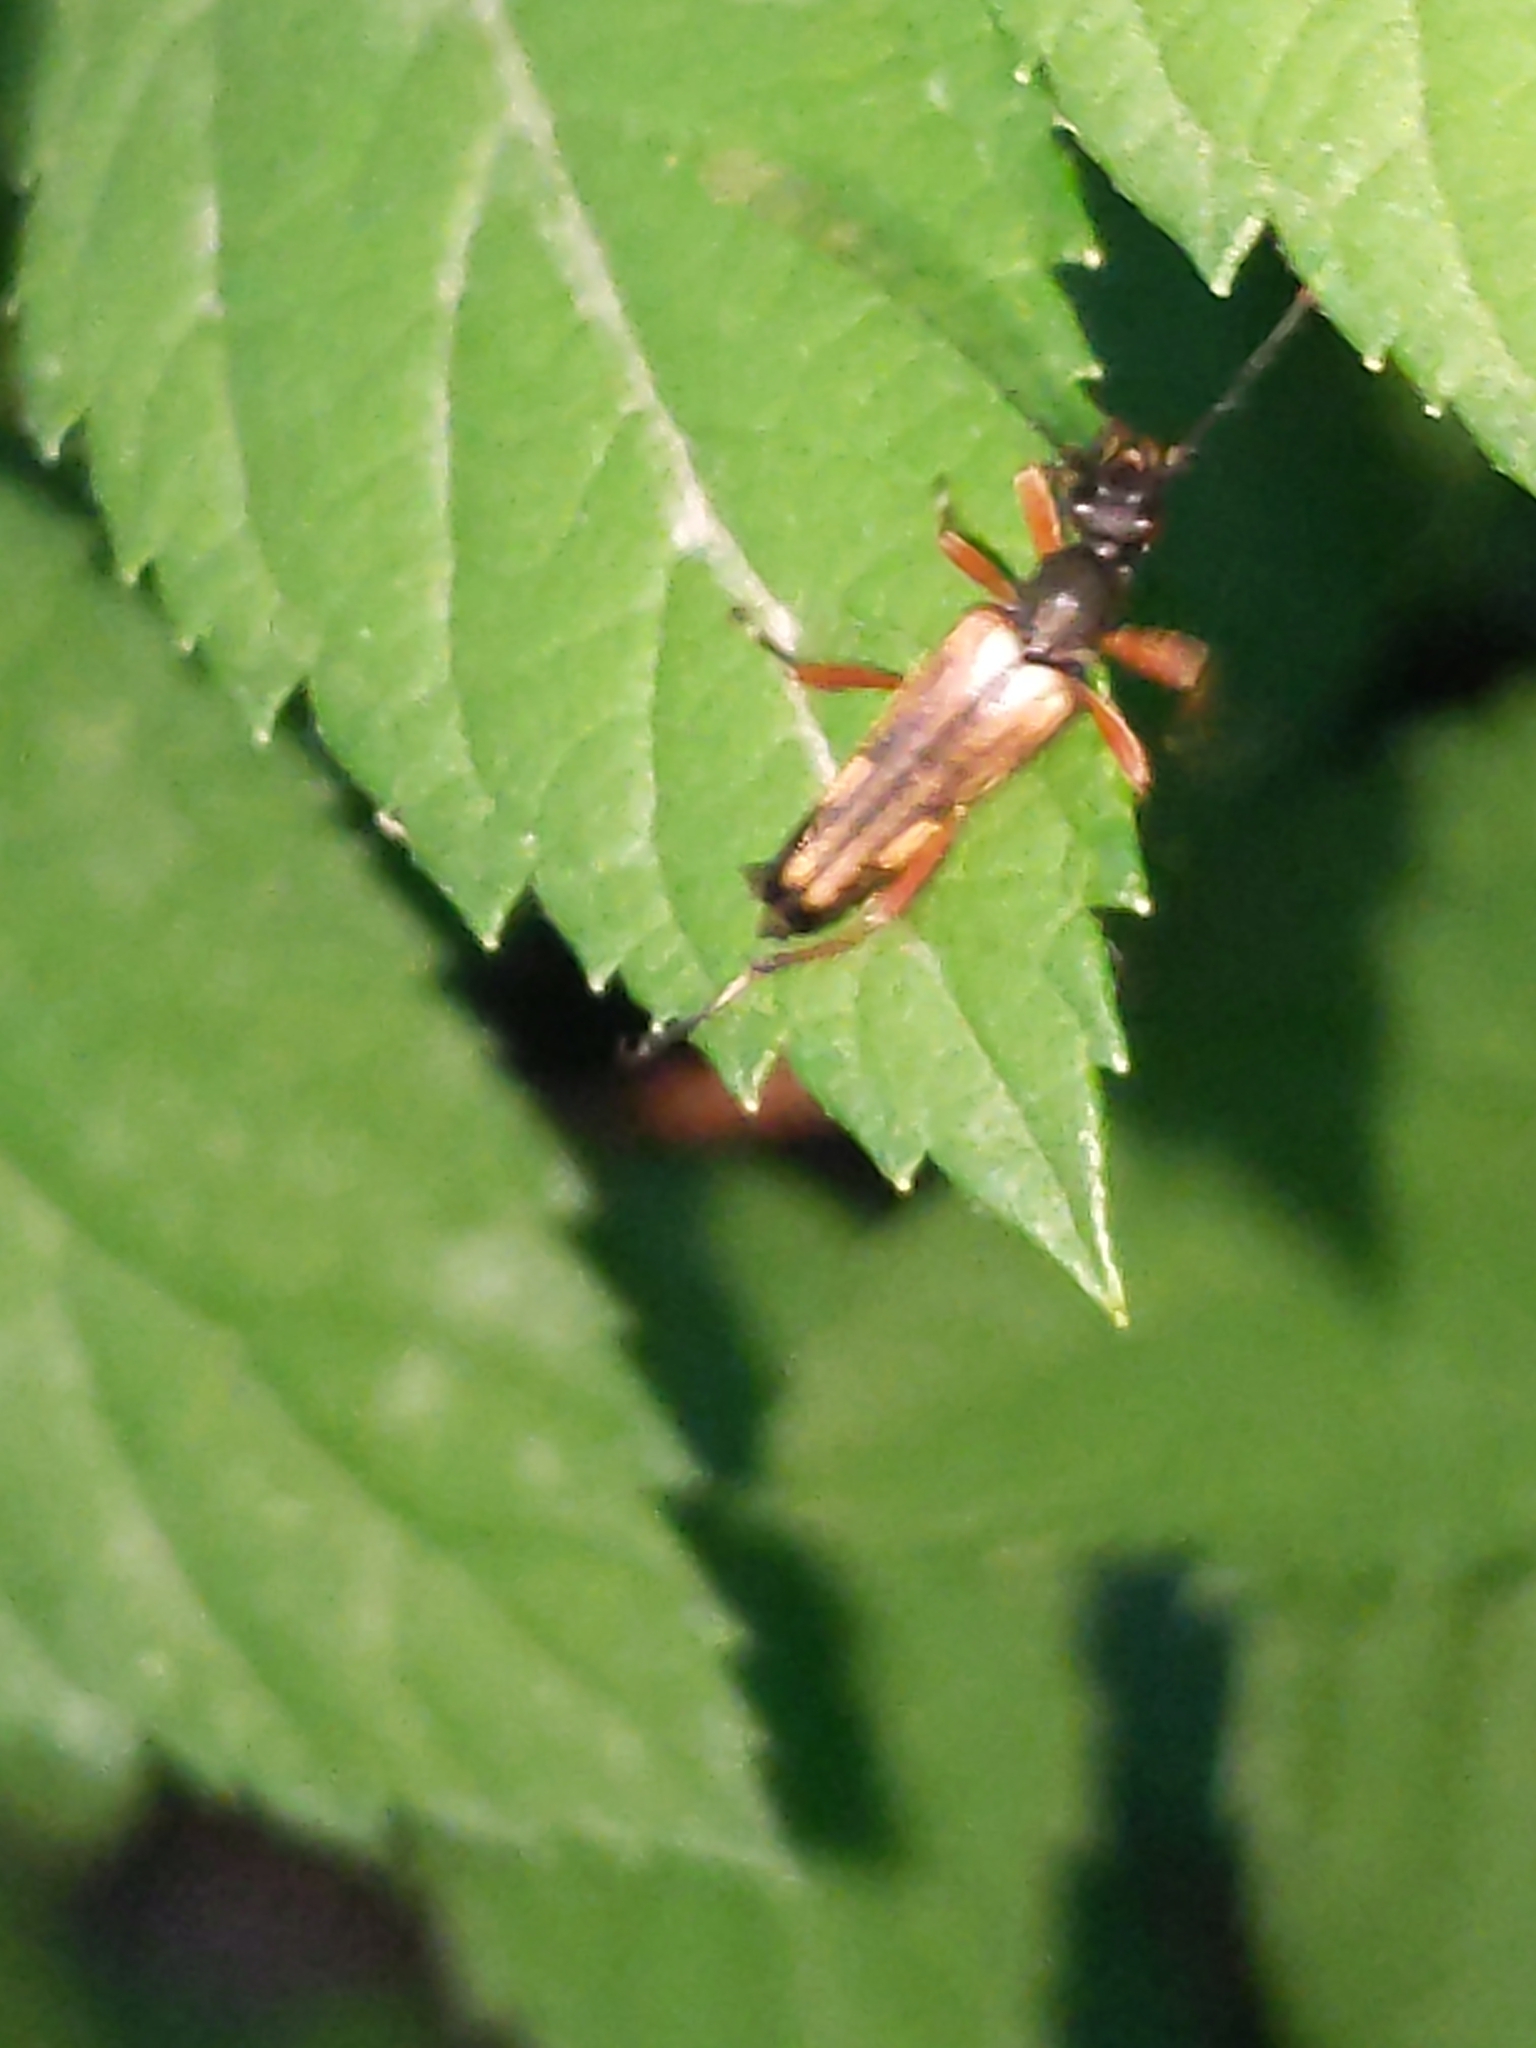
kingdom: Animalia
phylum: Arthropoda
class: Insecta
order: Coleoptera
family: Cerambycidae
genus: Analeptura
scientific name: Analeptura lineola
